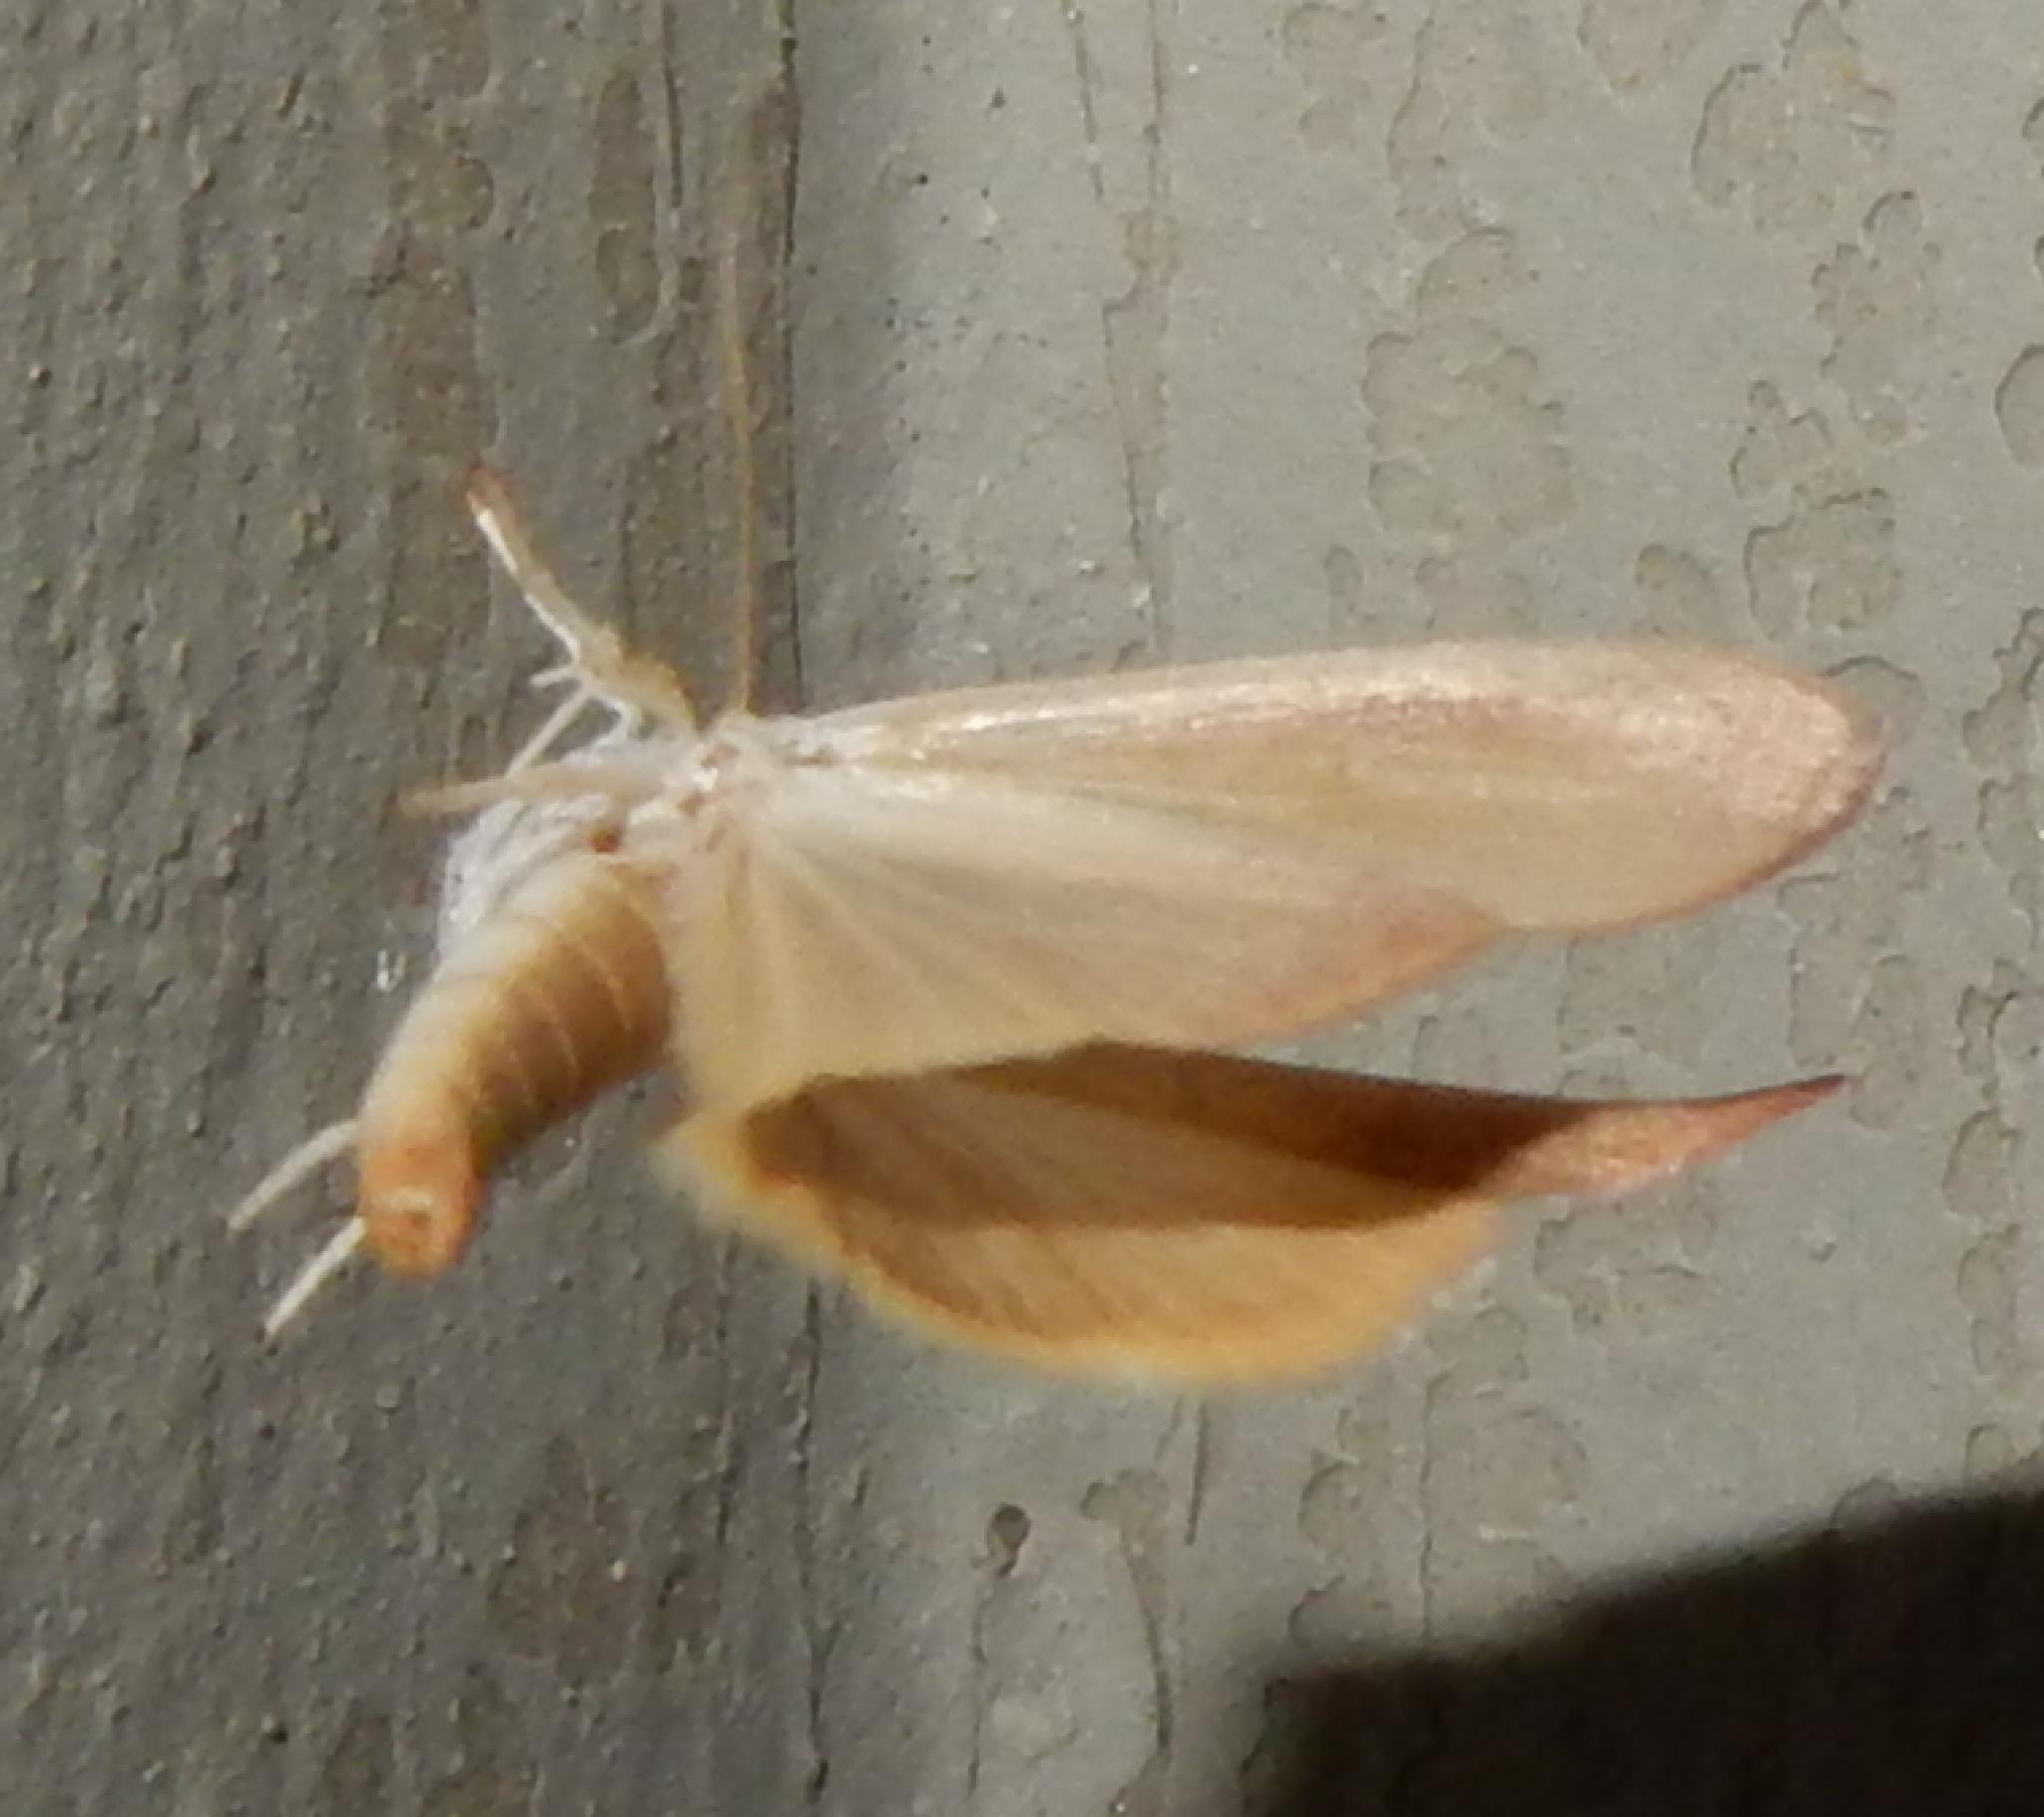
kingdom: Animalia
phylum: Arthropoda
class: Insecta
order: Lepidoptera
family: Nolidae
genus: Maurilia
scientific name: Maurilia arcuata
